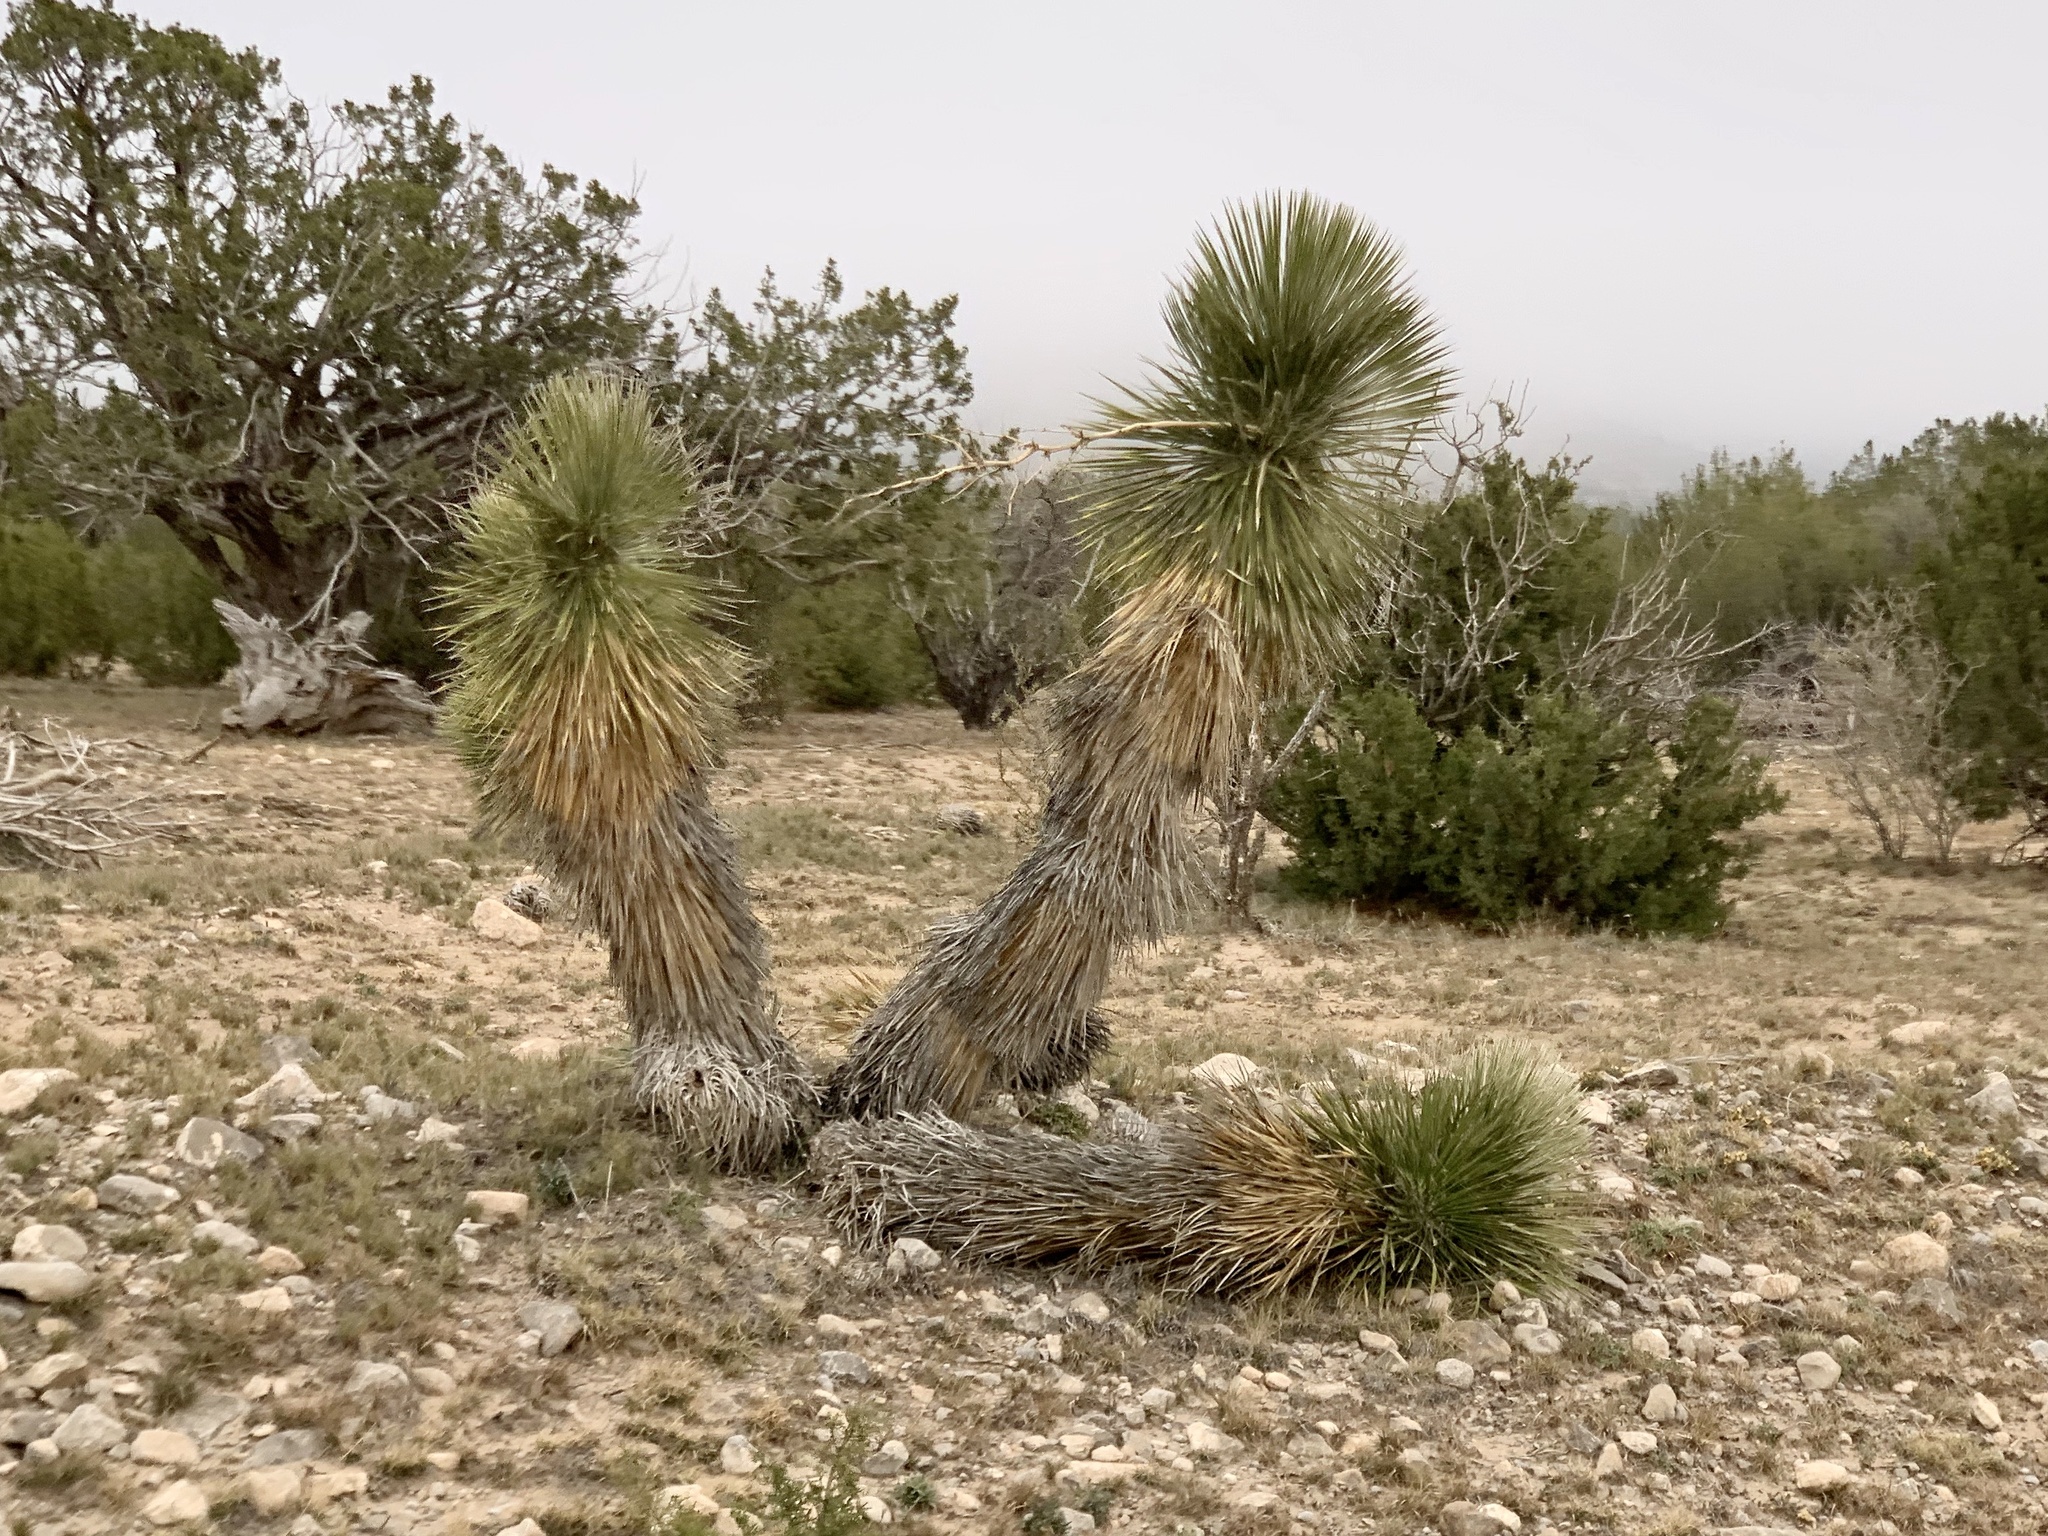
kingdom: Plantae
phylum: Tracheophyta
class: Liliopsida
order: Asparagales
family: Asparagaceae
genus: Yucca
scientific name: Yucca elata
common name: Palmella
